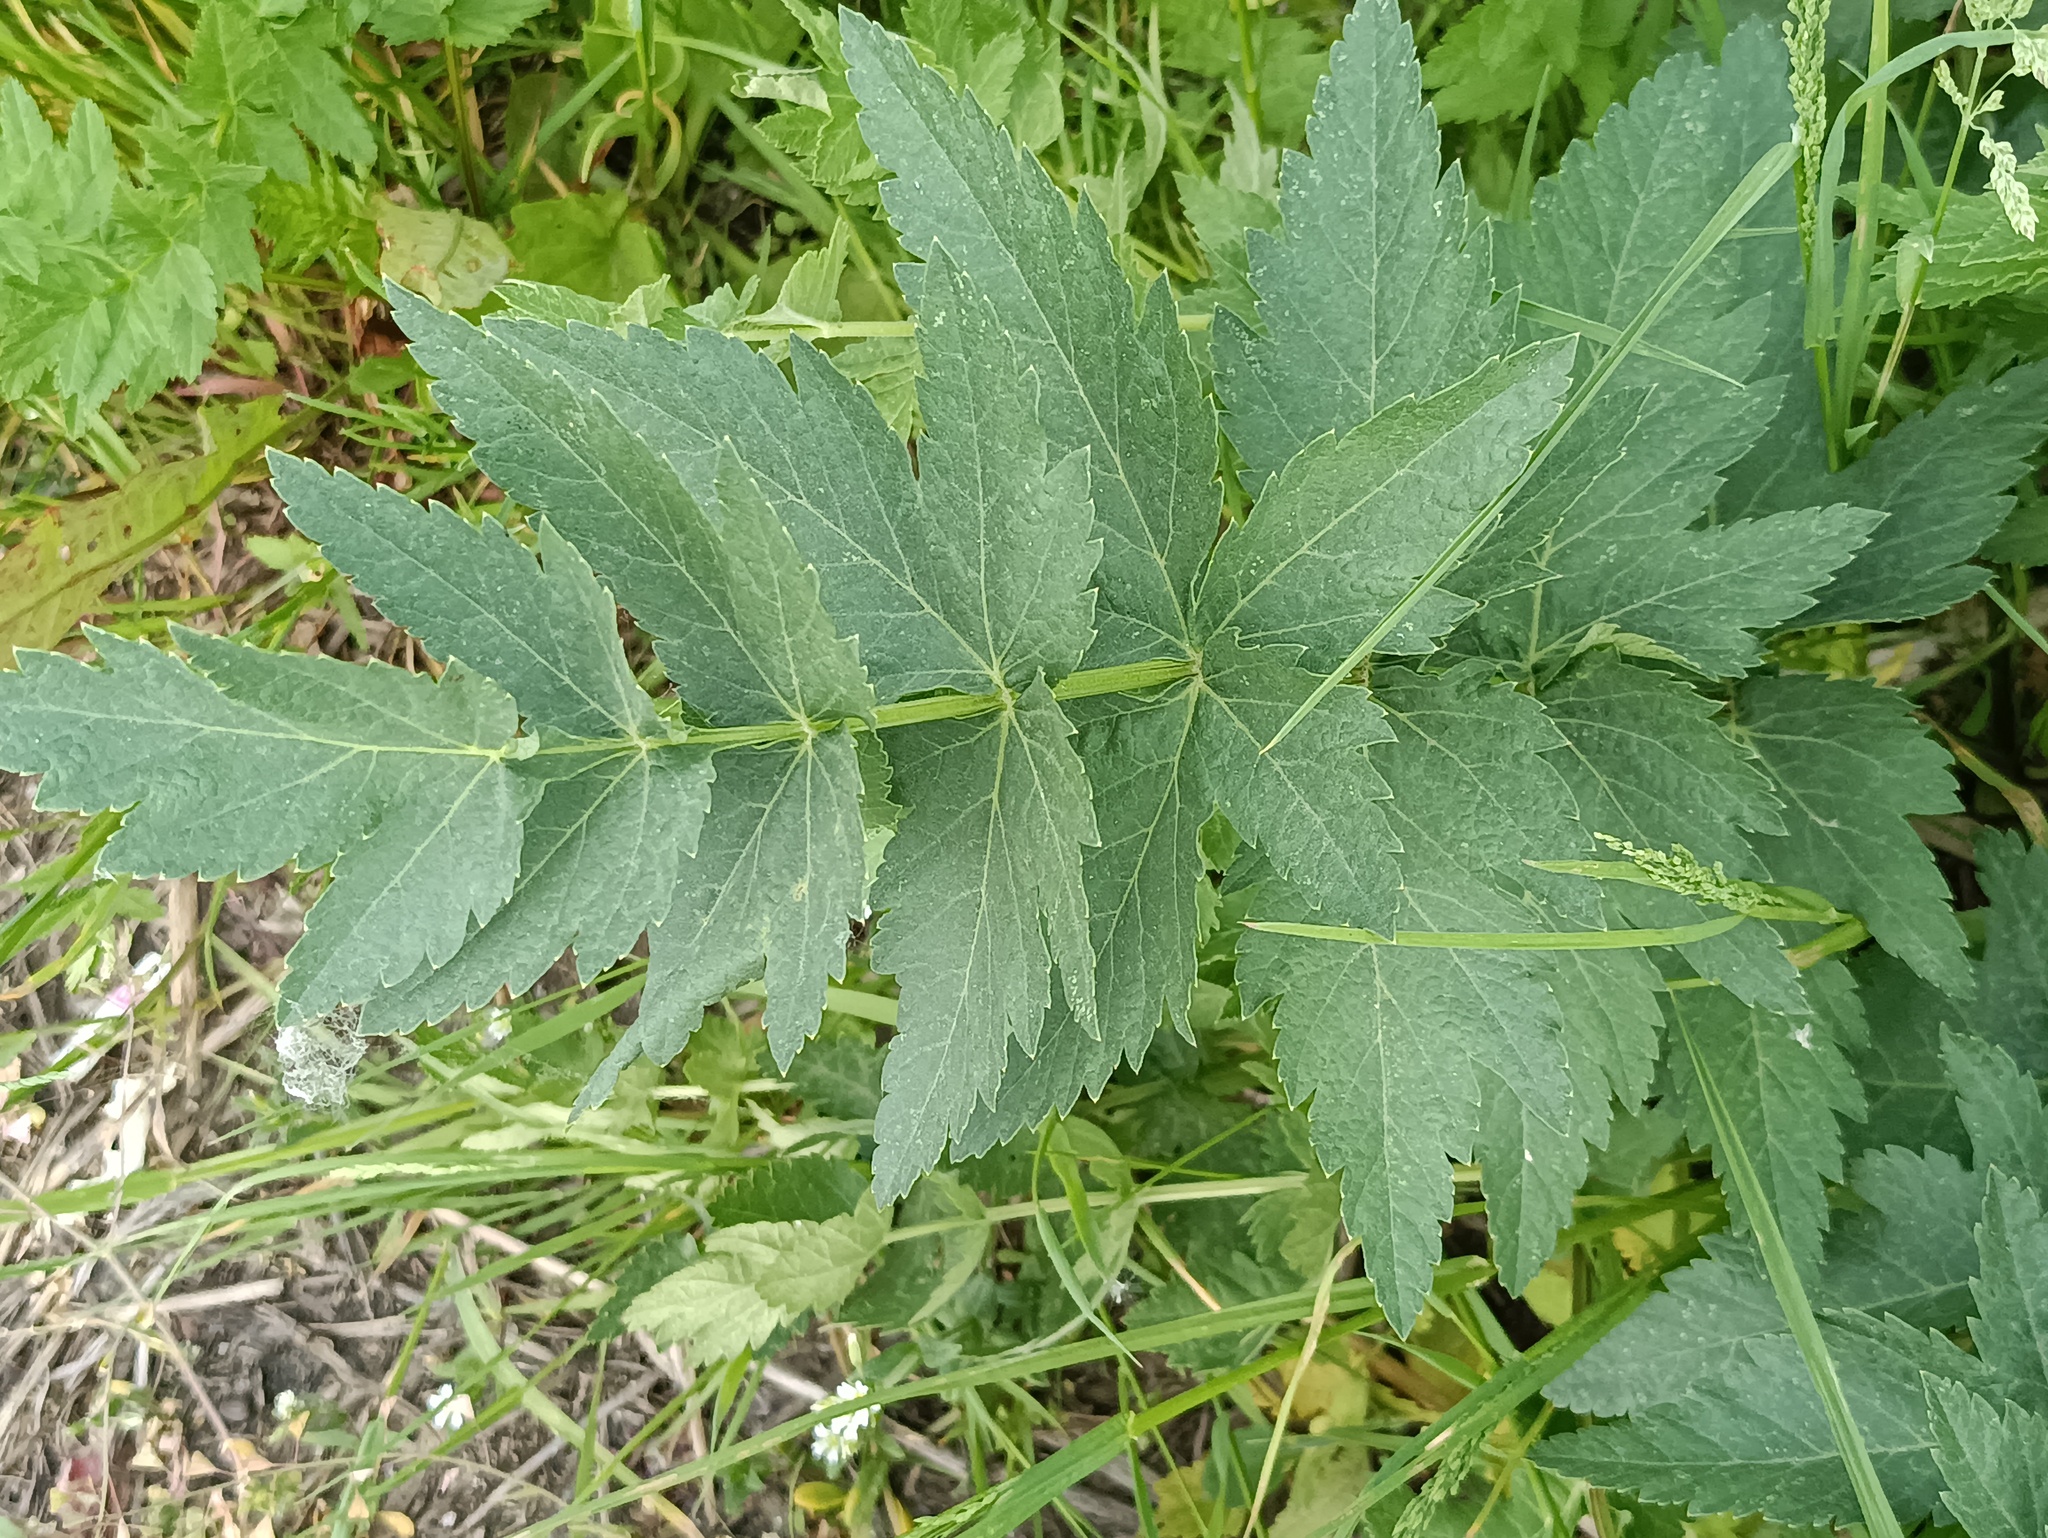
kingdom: Plantae
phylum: Tracheophyta
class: Magnoliopsida
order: Apiales
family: Apiaceae
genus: Pastinaca
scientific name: Pastinaca sativa
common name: Wild parsnip
